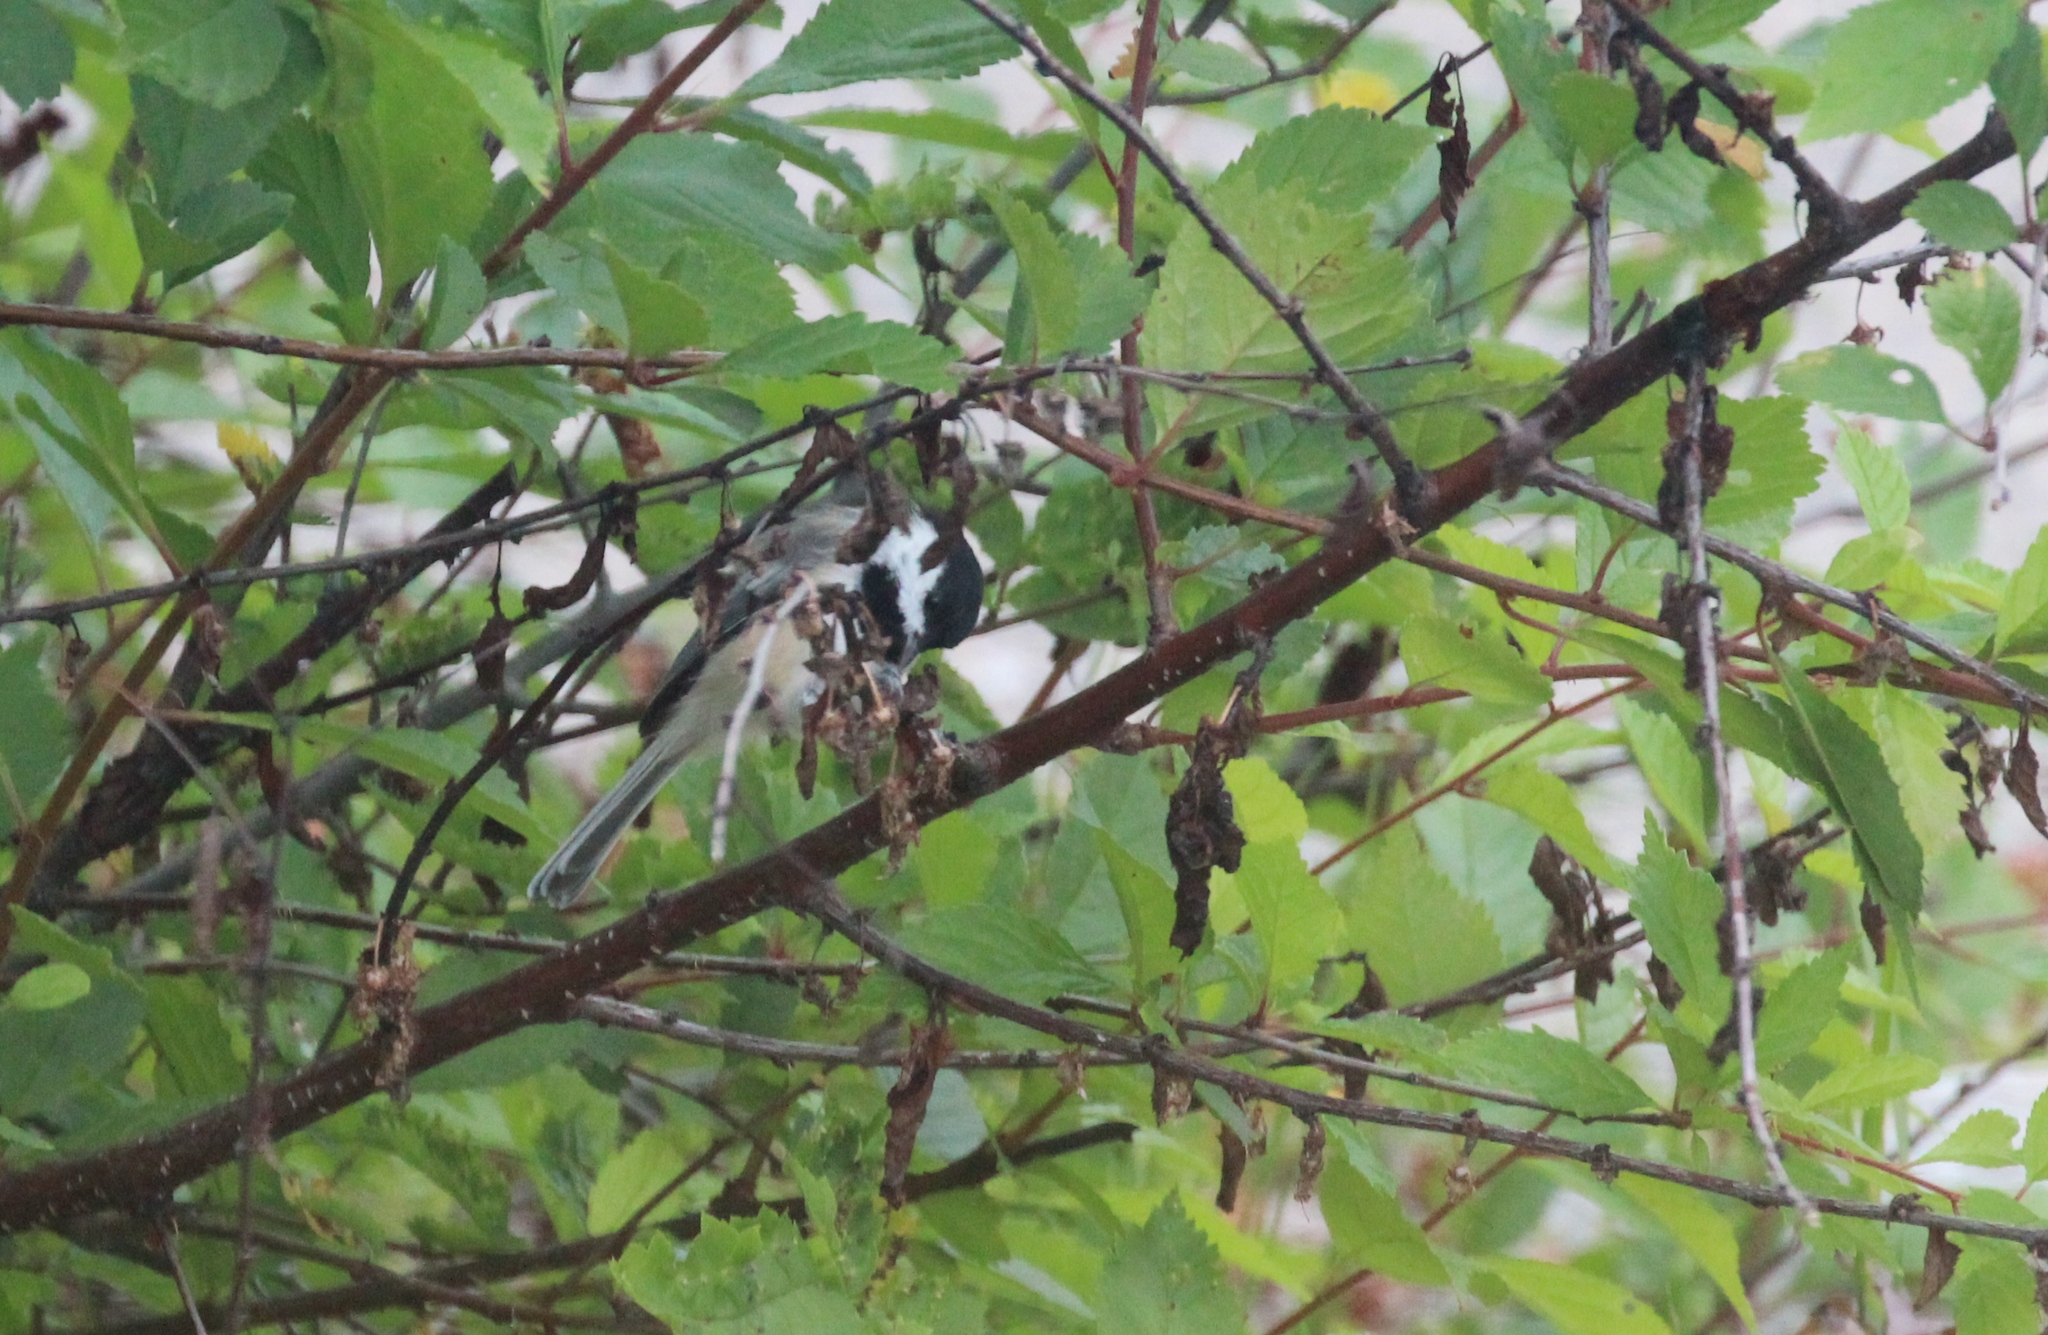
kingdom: Animalia
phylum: Chordata
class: Aves
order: Passeriformes
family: Paridae
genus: Poecile
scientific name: Poecile atricapillus
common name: Black-capped chickadee
